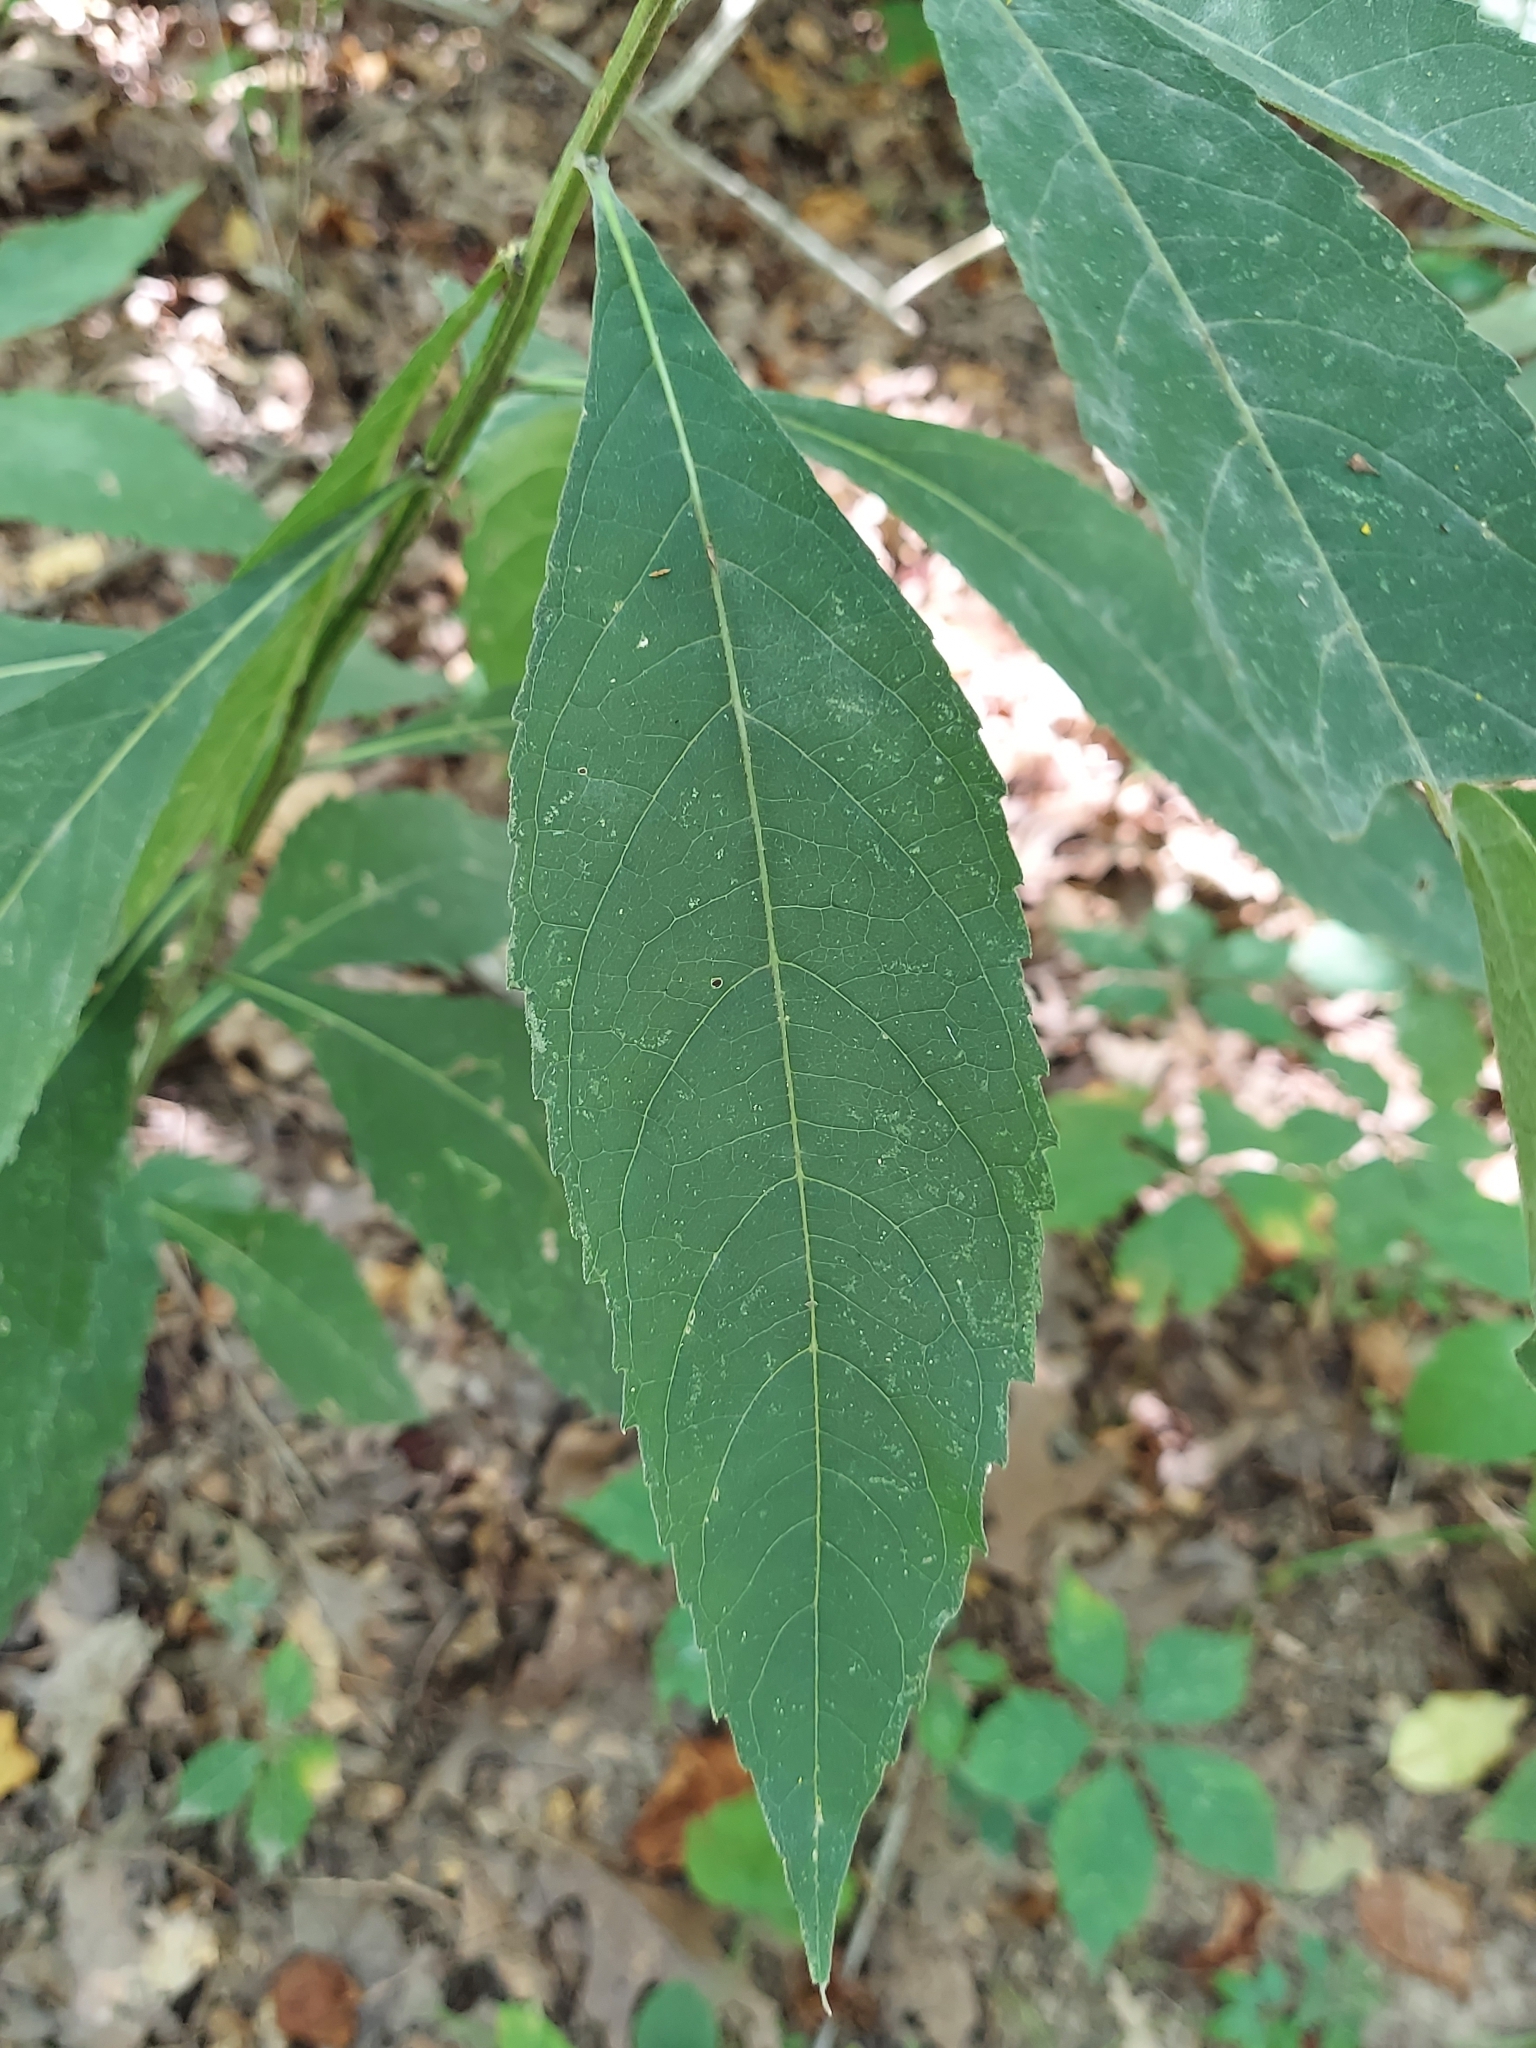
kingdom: Plantae
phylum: Tracheophyta
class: Magnoliopsida
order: Asterales
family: Asteraceae
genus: Verbesina
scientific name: Verbesina alternifolia
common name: Wingstem
